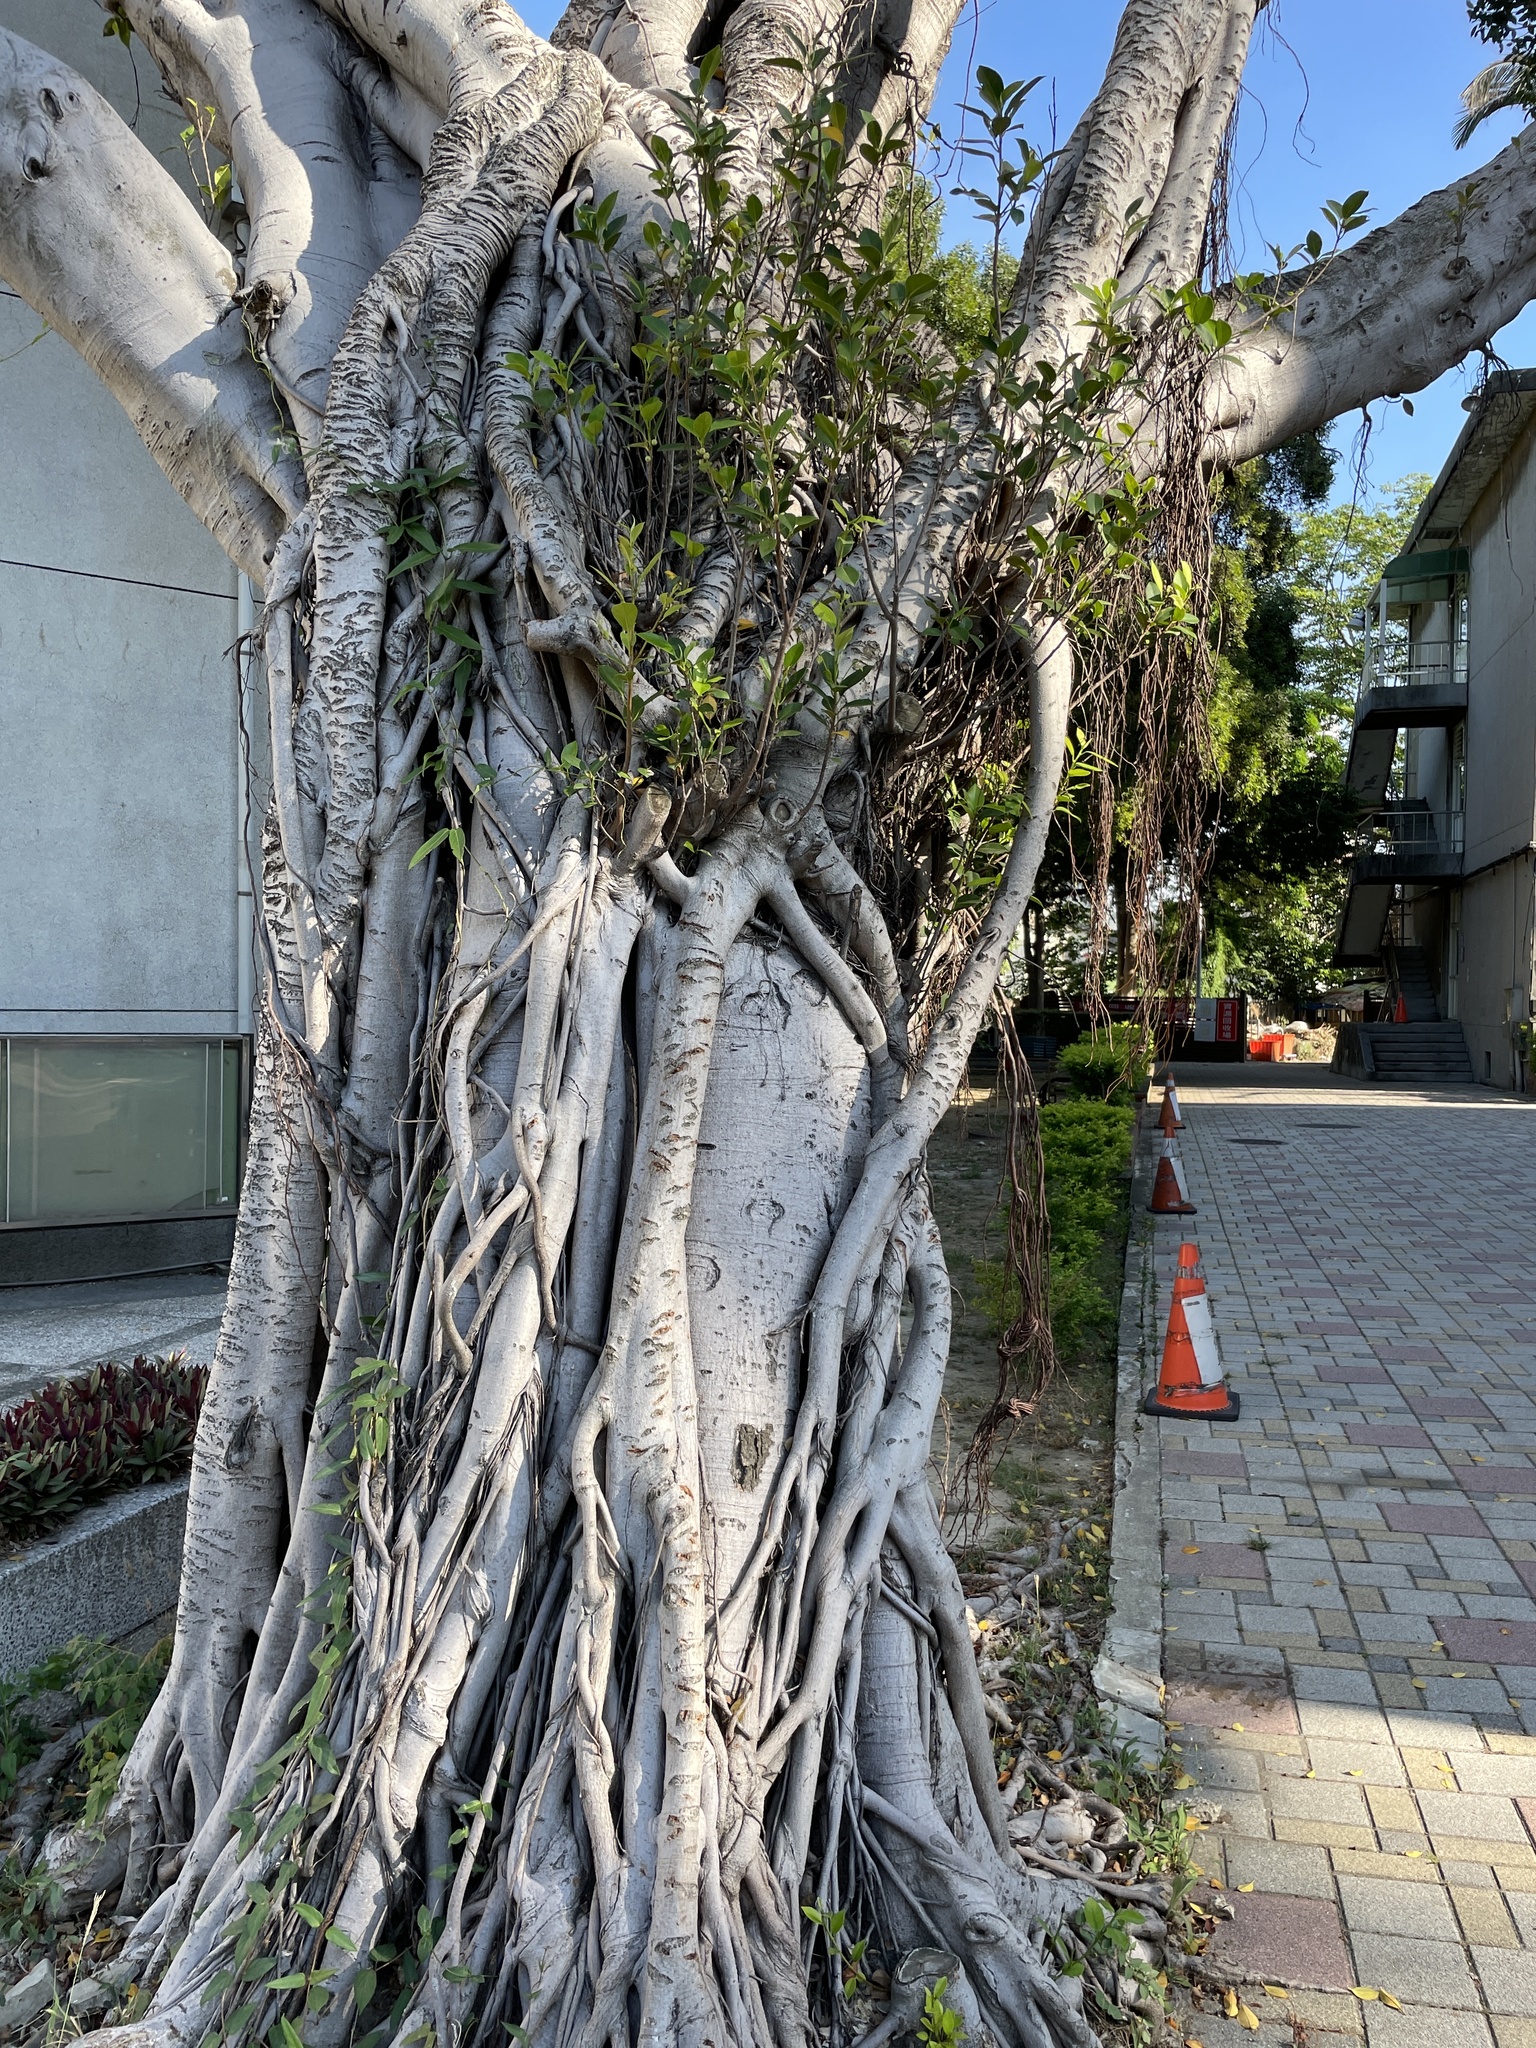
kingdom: Plantae
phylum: Tracheophyta
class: Magnoliopsida
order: Rosales
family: Moraceae
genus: Ficus
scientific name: Ficus microcarpa
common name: Chinese banyan
